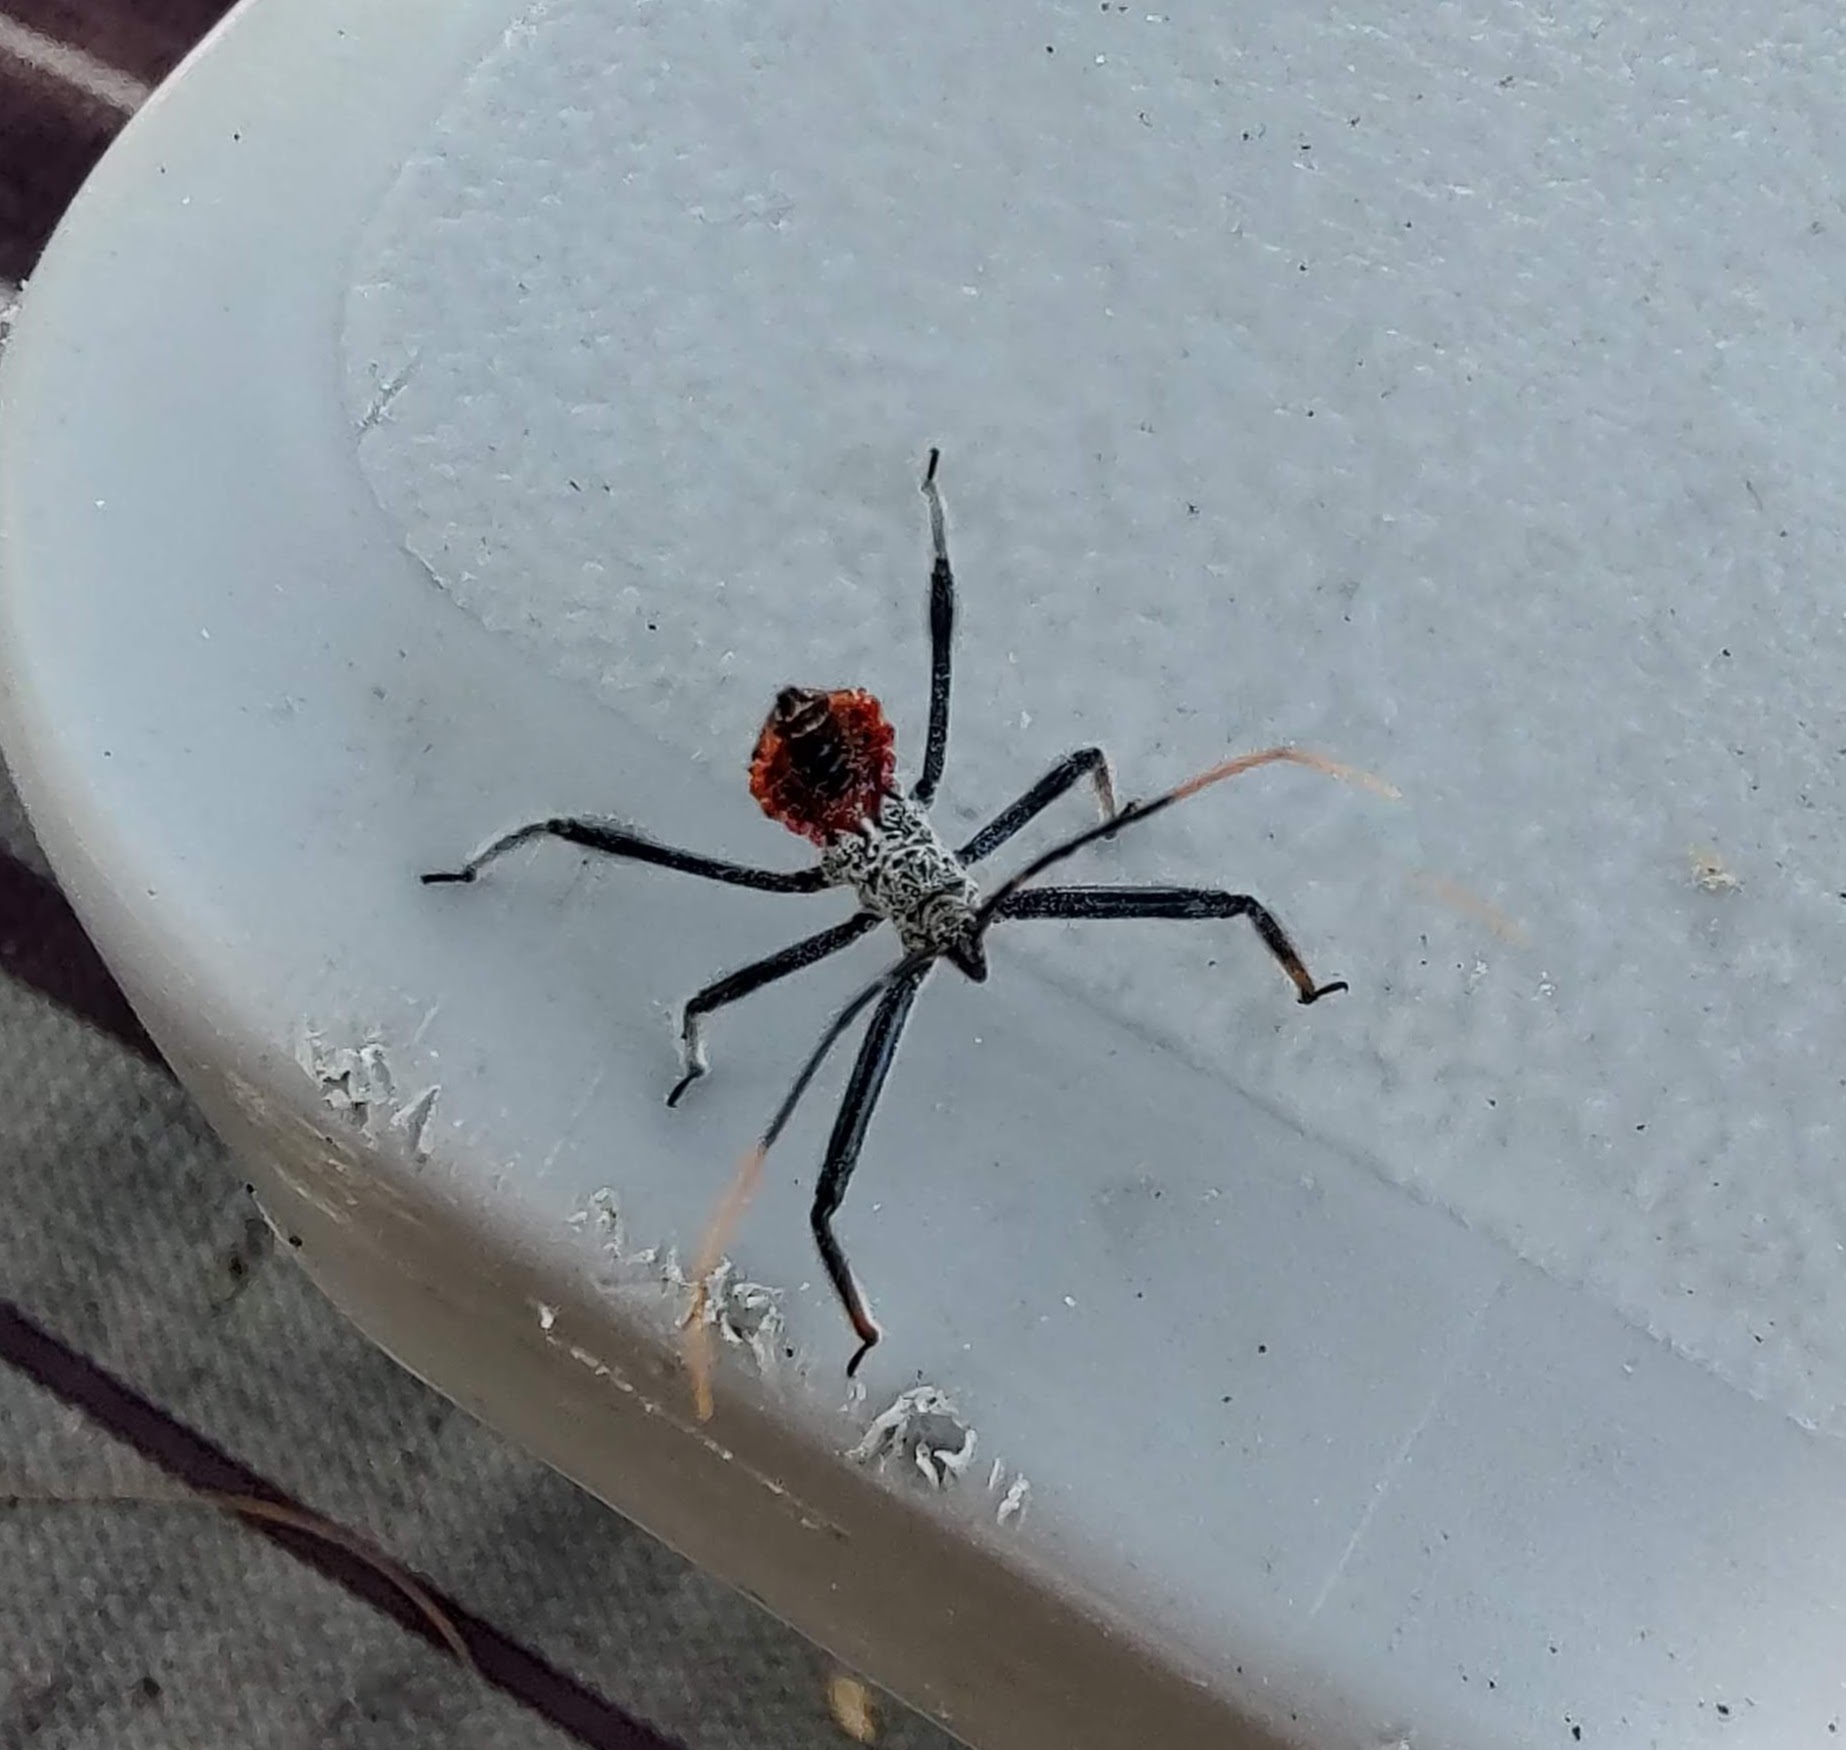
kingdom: Animalia
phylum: Arthropoda
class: Insecta
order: Hemiptera
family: Reduviidae
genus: Arilus
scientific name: Arilus cristatus
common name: North american wheel bug
